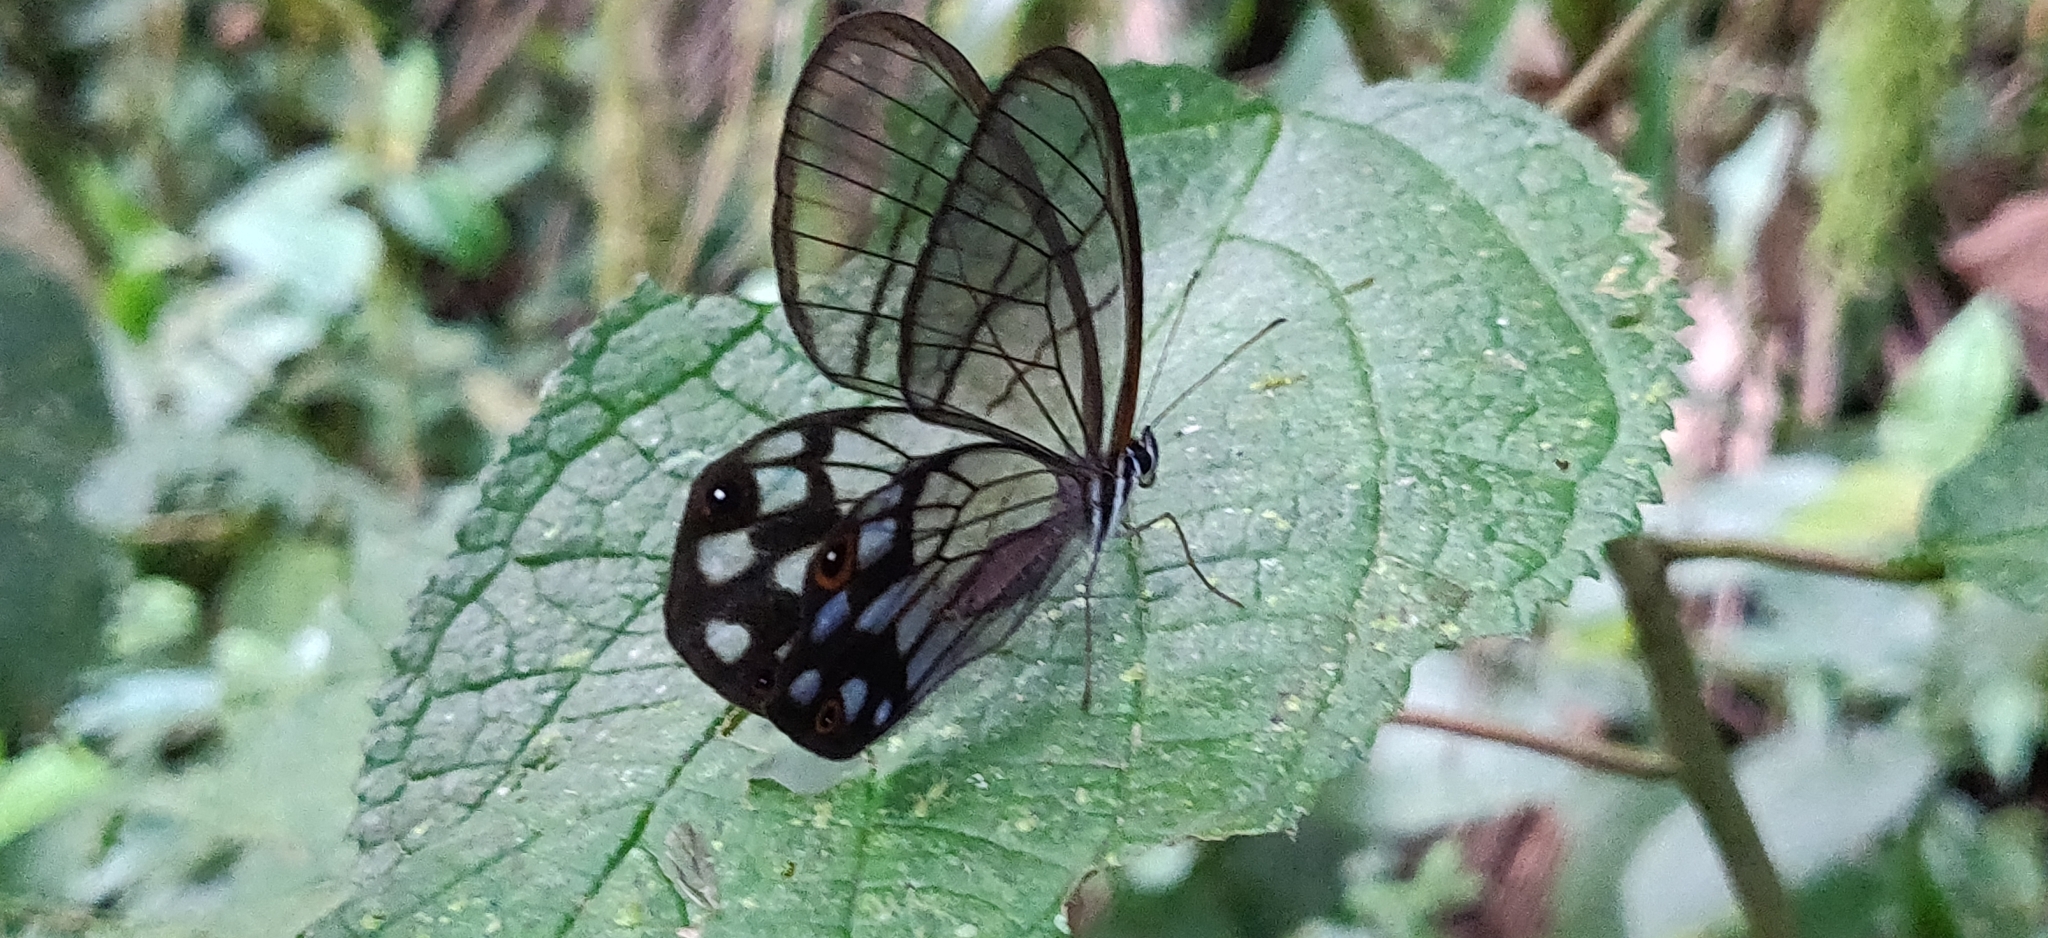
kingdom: Animalia
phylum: Arthropoda
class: Insecta
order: Lepidoptera
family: Nymphalidae
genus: Pseudohaetera
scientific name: Pseudohaetera
